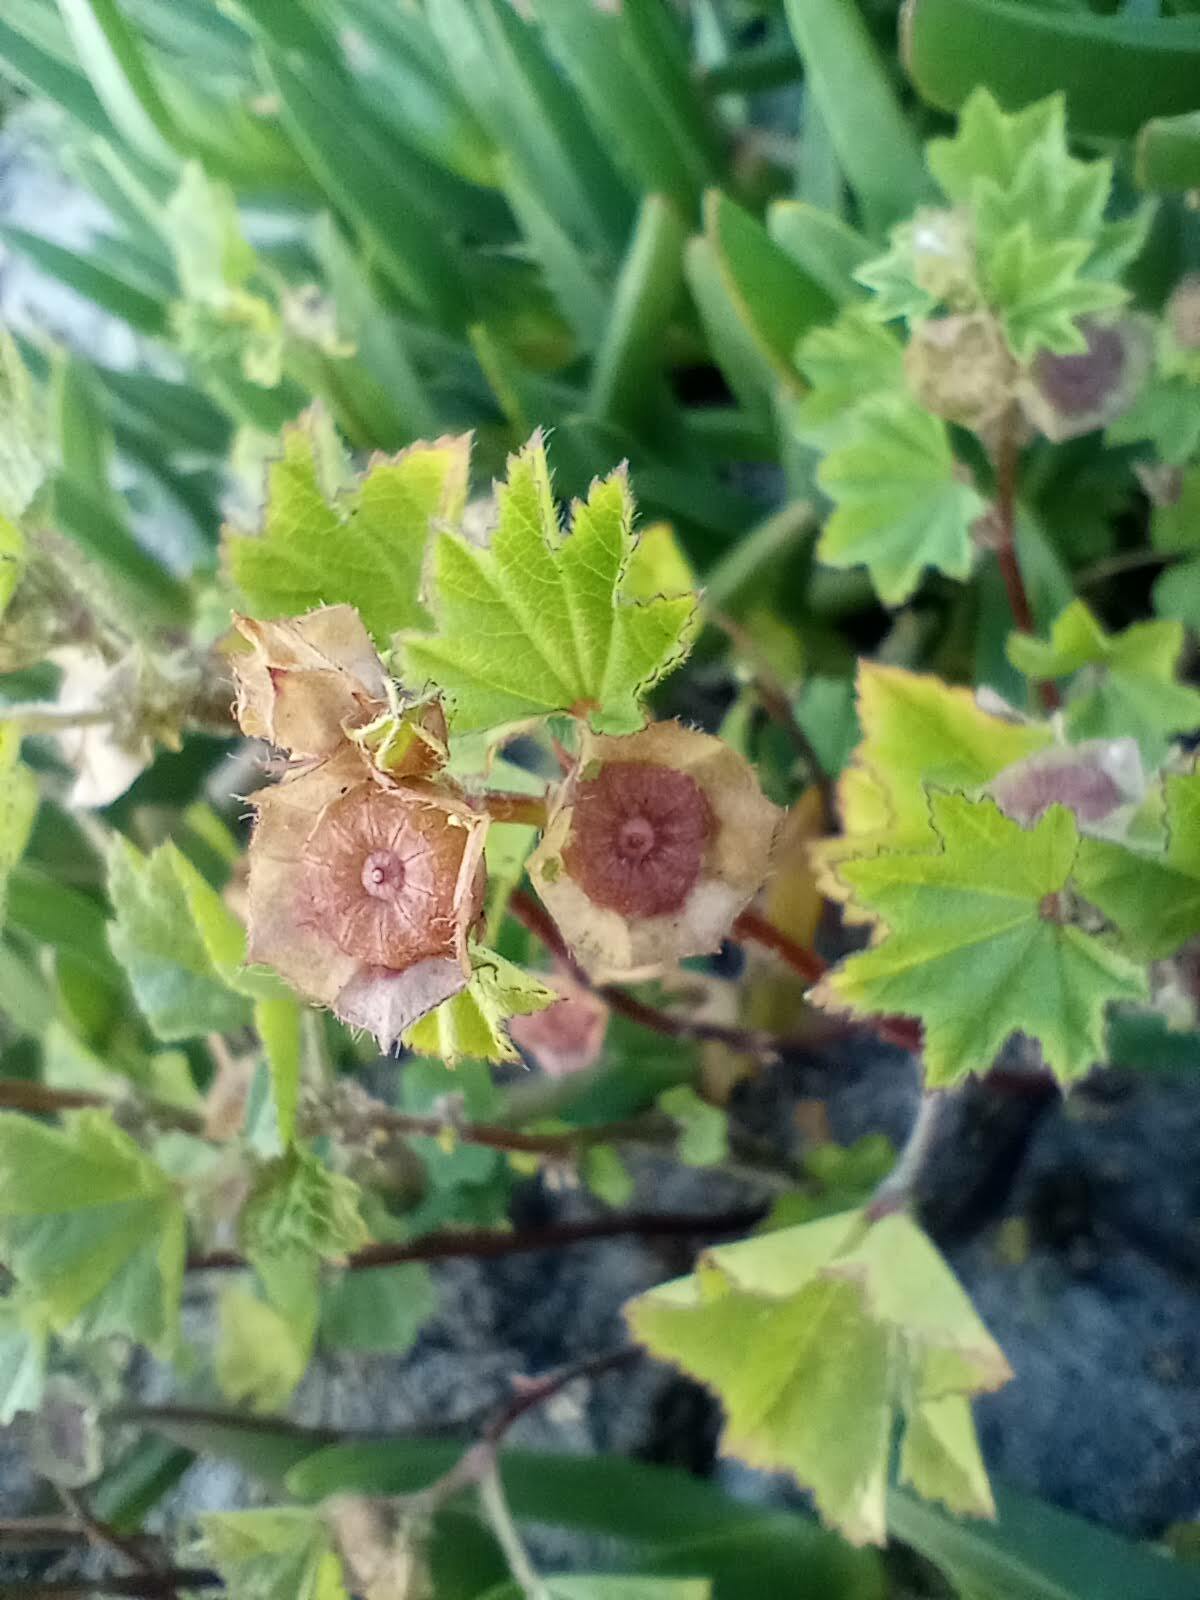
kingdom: Plantae
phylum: Tracheophyta
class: Magnoliopsida
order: Malvales
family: Malvaceae
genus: Malva
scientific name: Malva parviflora
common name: Least mallow
